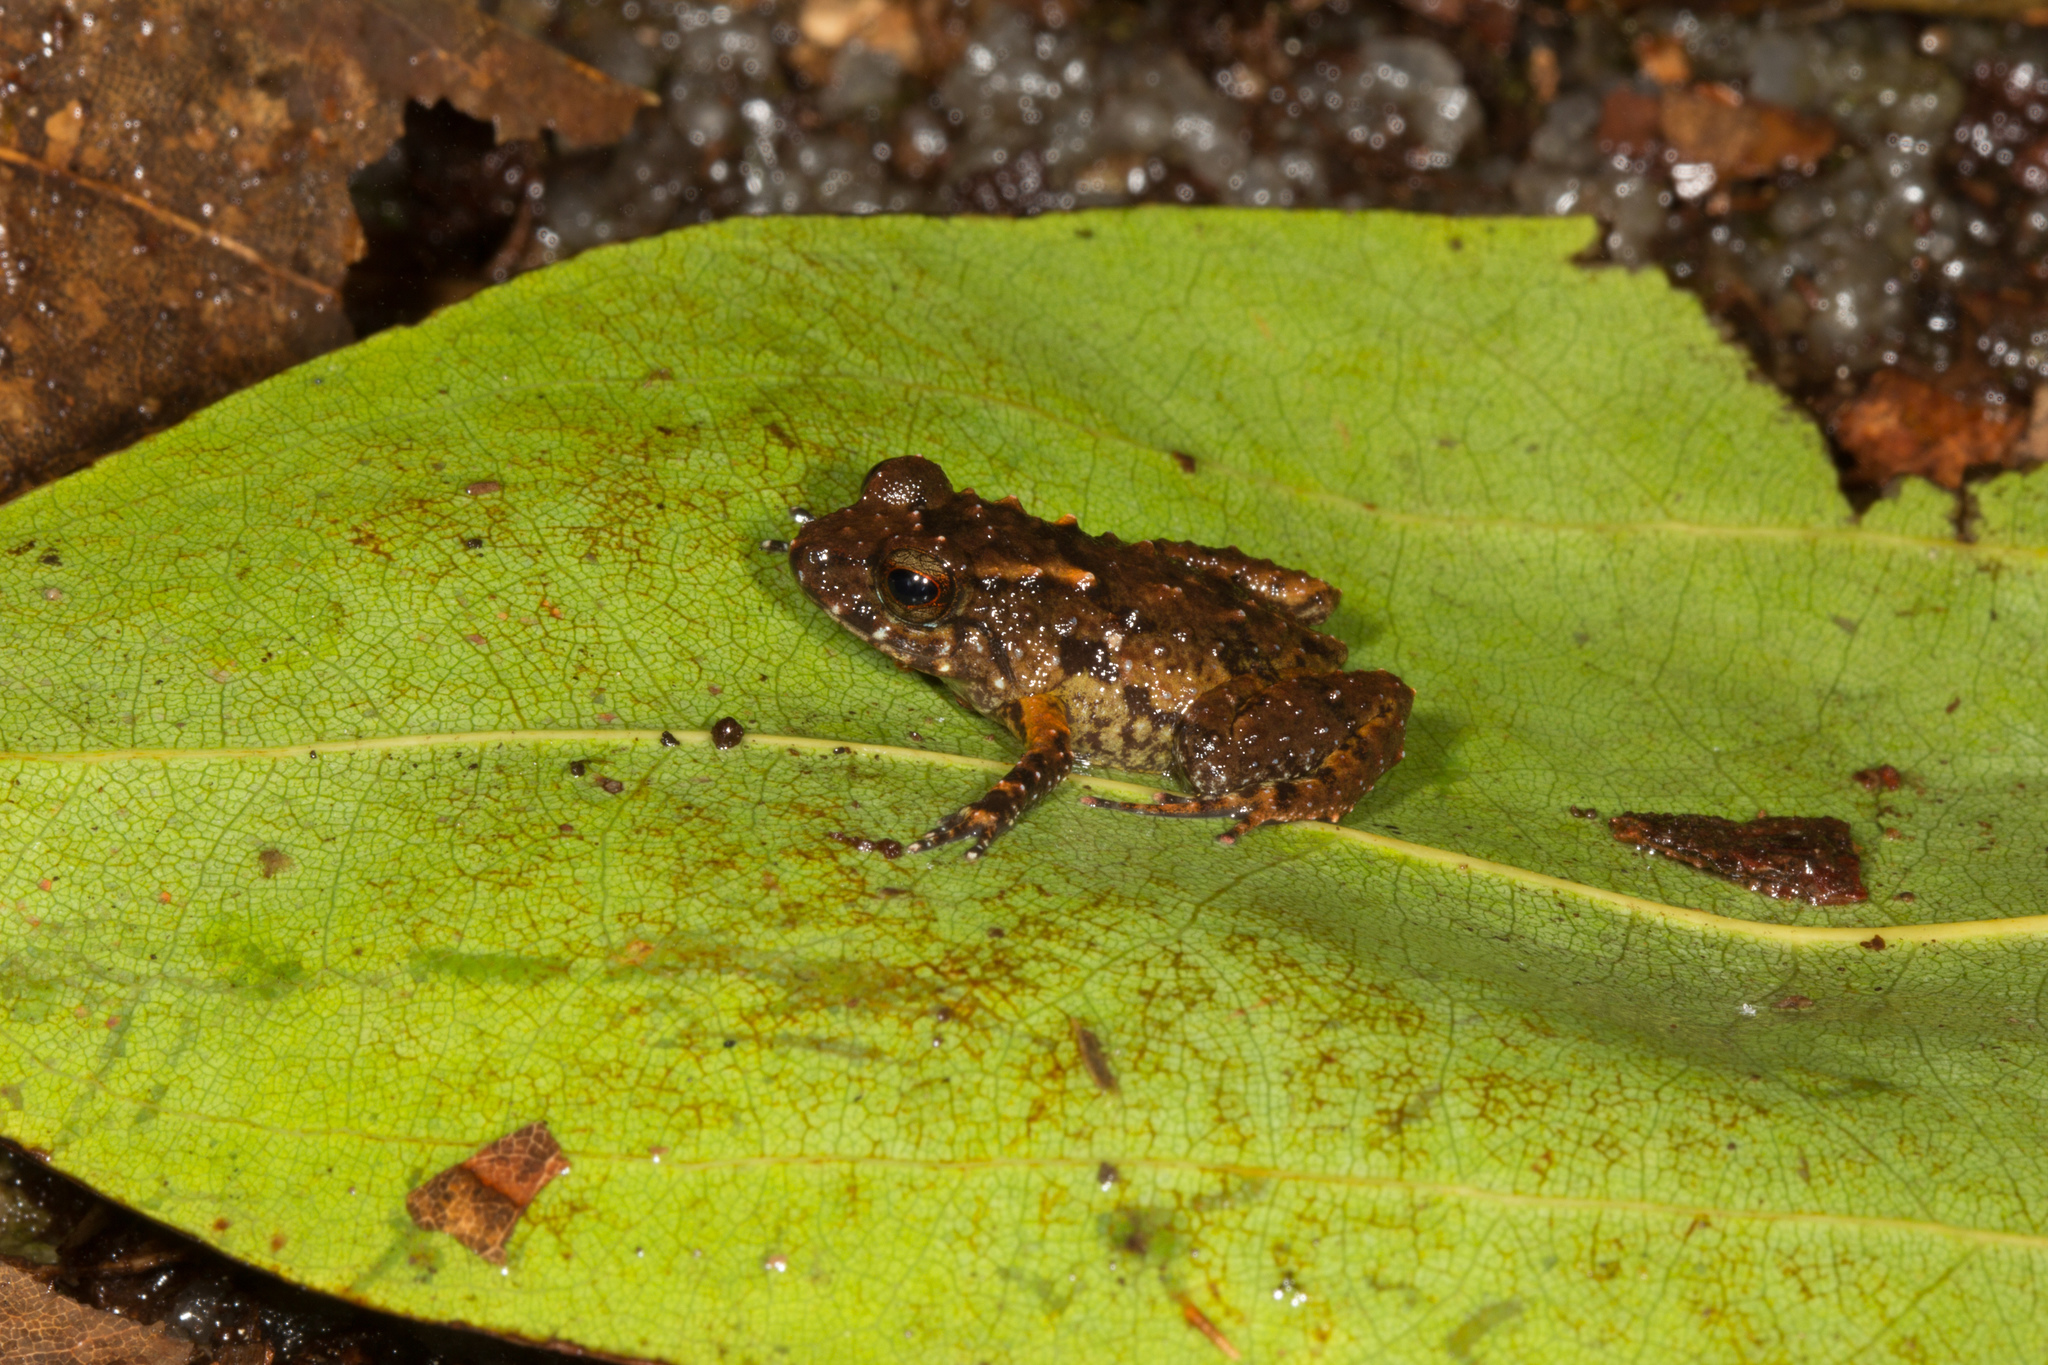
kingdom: Animalia
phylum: Chordata
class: Amphibia
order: Anura
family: Sooglossidae
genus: Sooglossus
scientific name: Sooglossus sechellensis
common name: Seychelles frog
